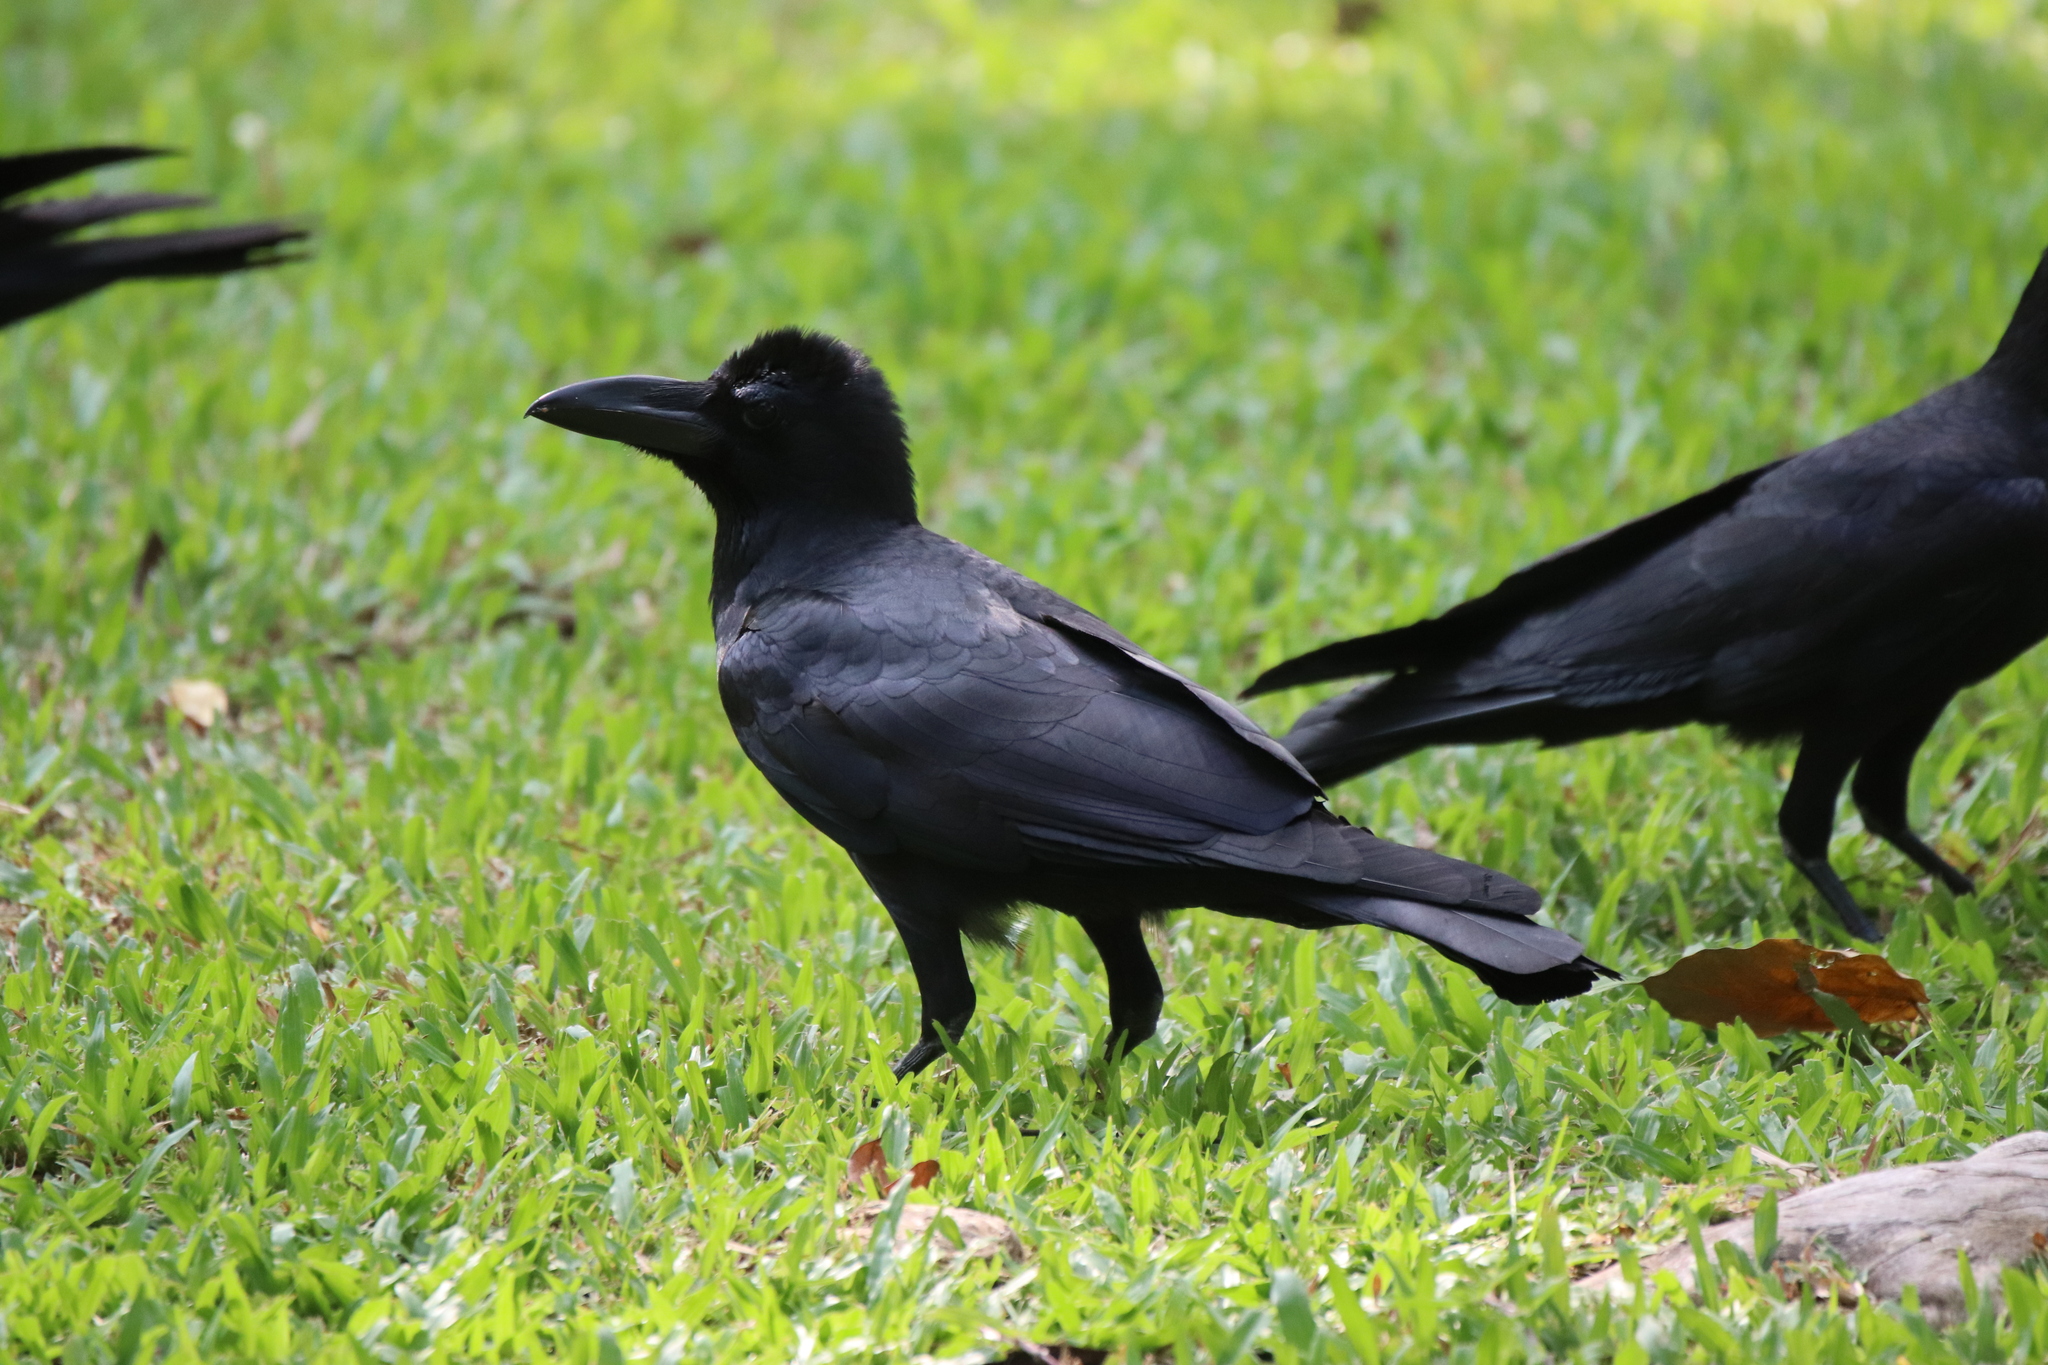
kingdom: Animalia
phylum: Chordata
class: Aves
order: Passeriformes
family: Corvidae
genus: Corvus
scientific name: Corvus macrorhynchos
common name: Large-billed crow
